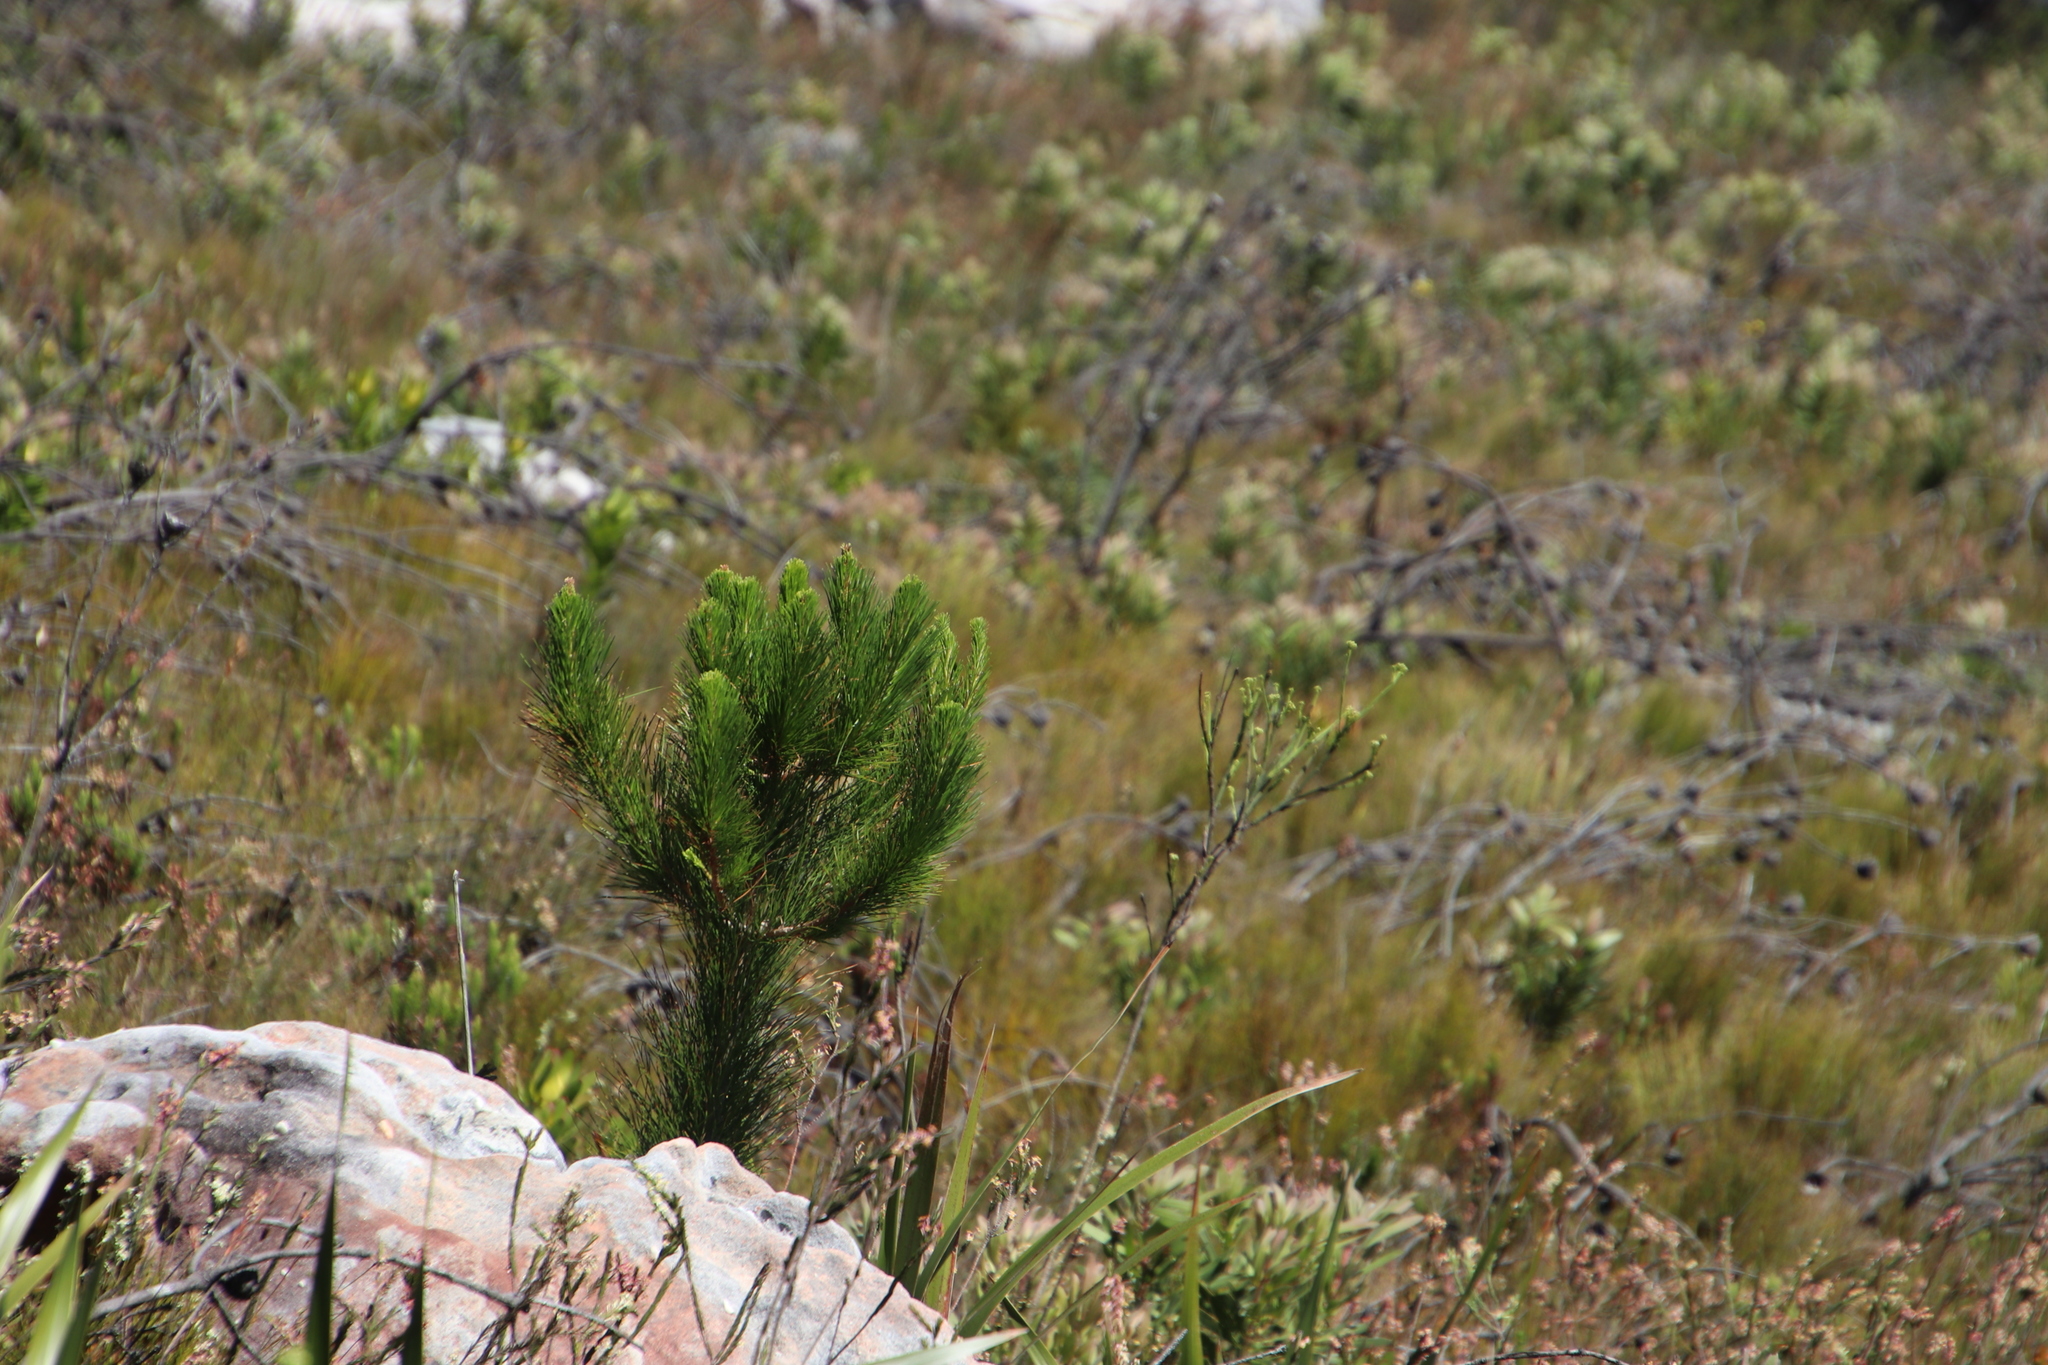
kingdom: Plantae
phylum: Tracheophyta
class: Pinopsida
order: Pinales
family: Pinaceae
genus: Pinus
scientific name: Pinus radiata
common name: Monterey pine
